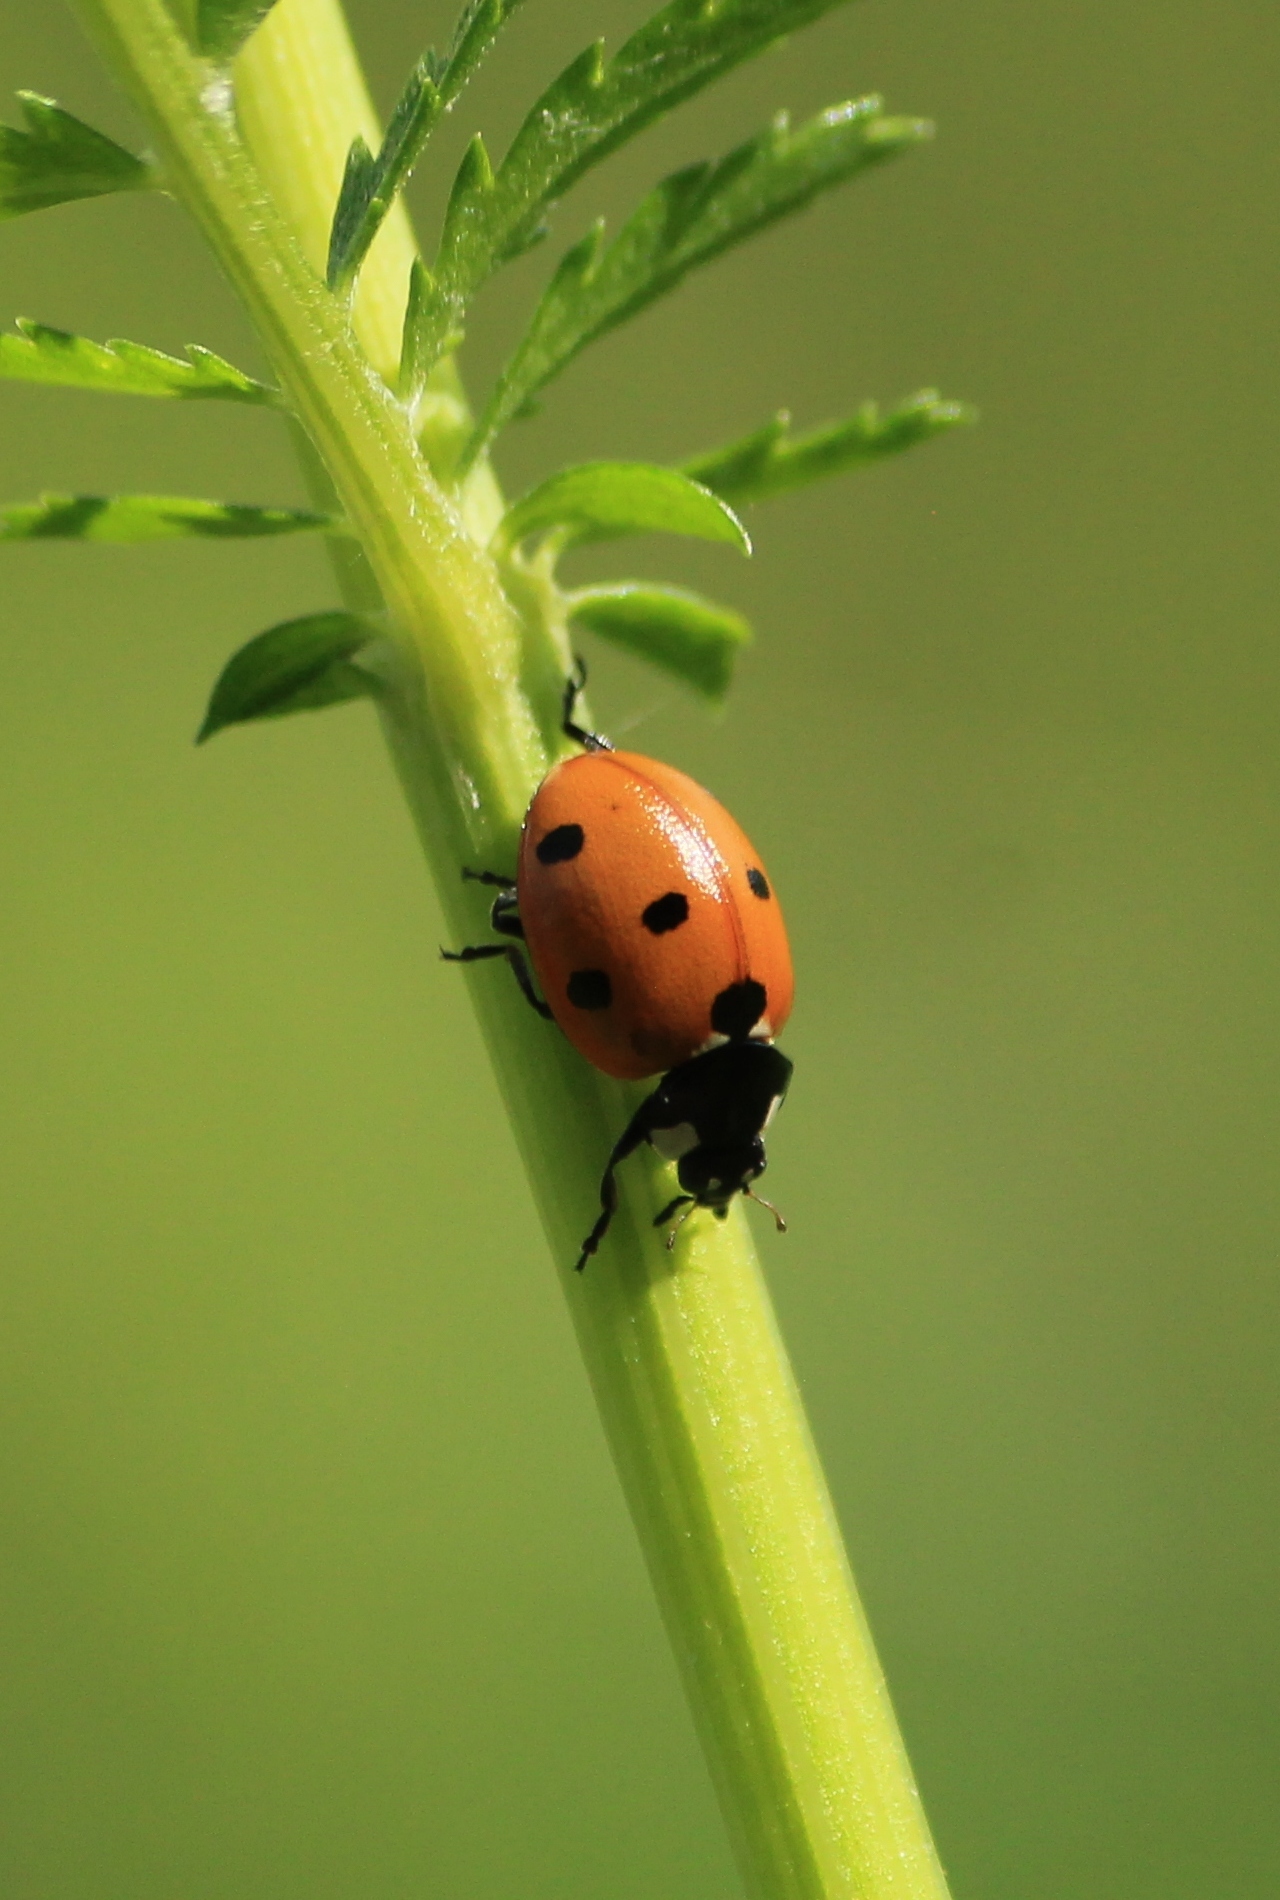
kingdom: Animalia
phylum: Arthropoda
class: Insecta
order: Coleoptera
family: Coccinellidae
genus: Coccinella
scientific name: Coccinella septempunctata
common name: Sevenspotted lady beetle
